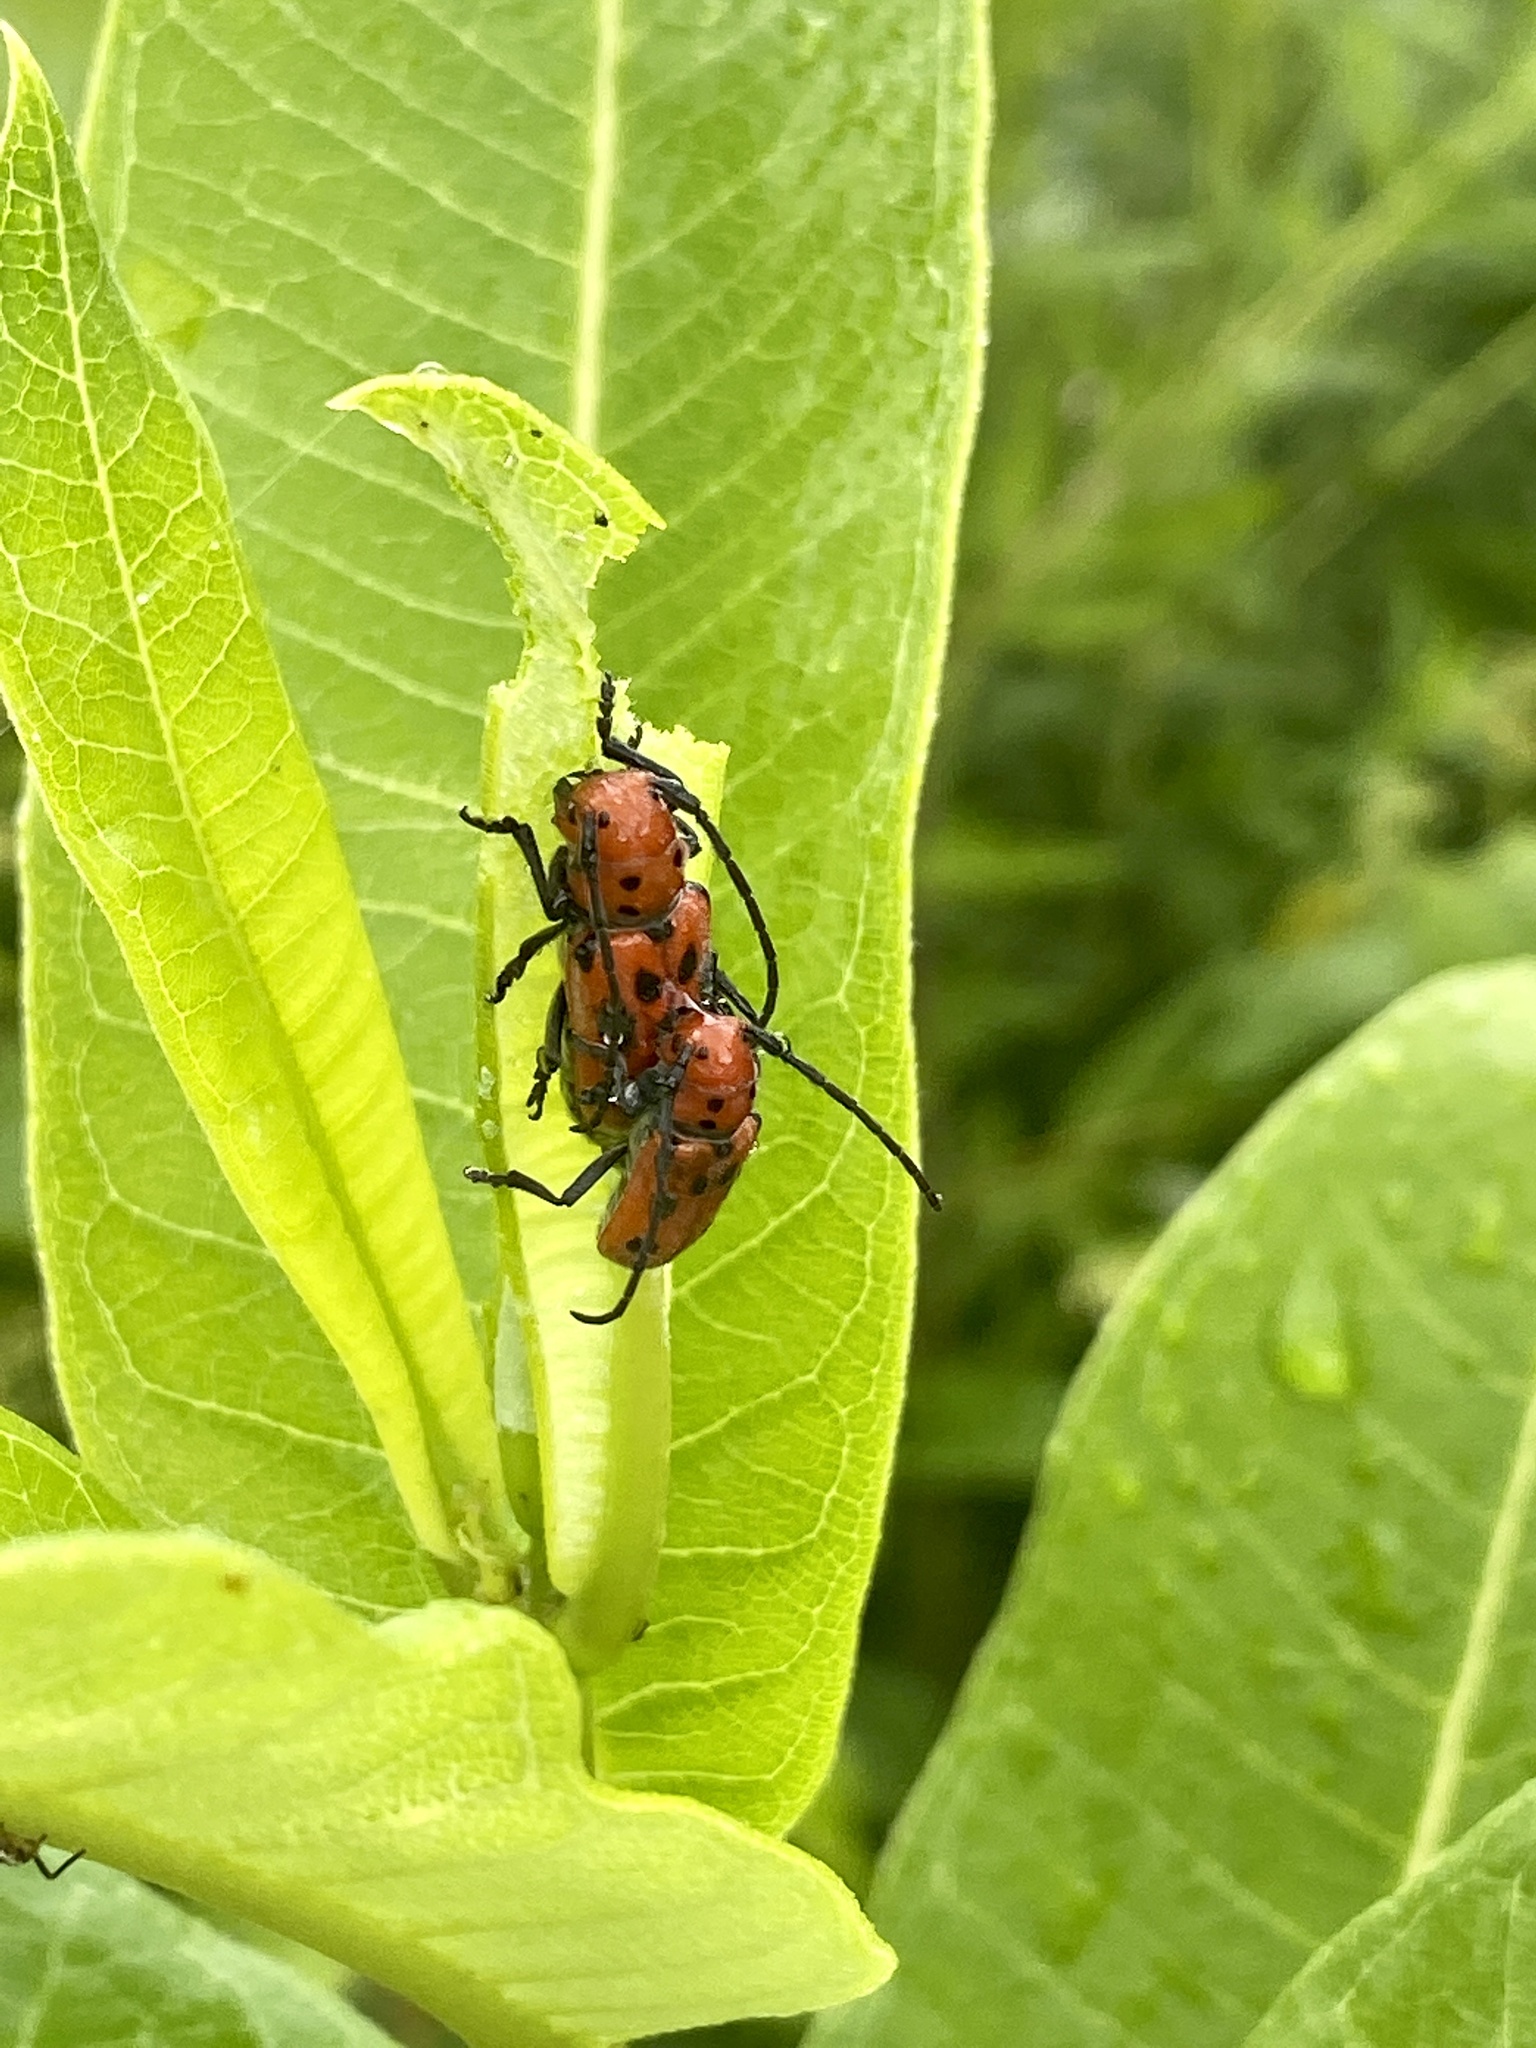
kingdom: Animalia
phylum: Arthropoda
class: Insecta
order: Coleoptera
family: Cerambycidae
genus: Tetraopes
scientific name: Tetraopes tetrophthalmus
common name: Red milkweed beetle
